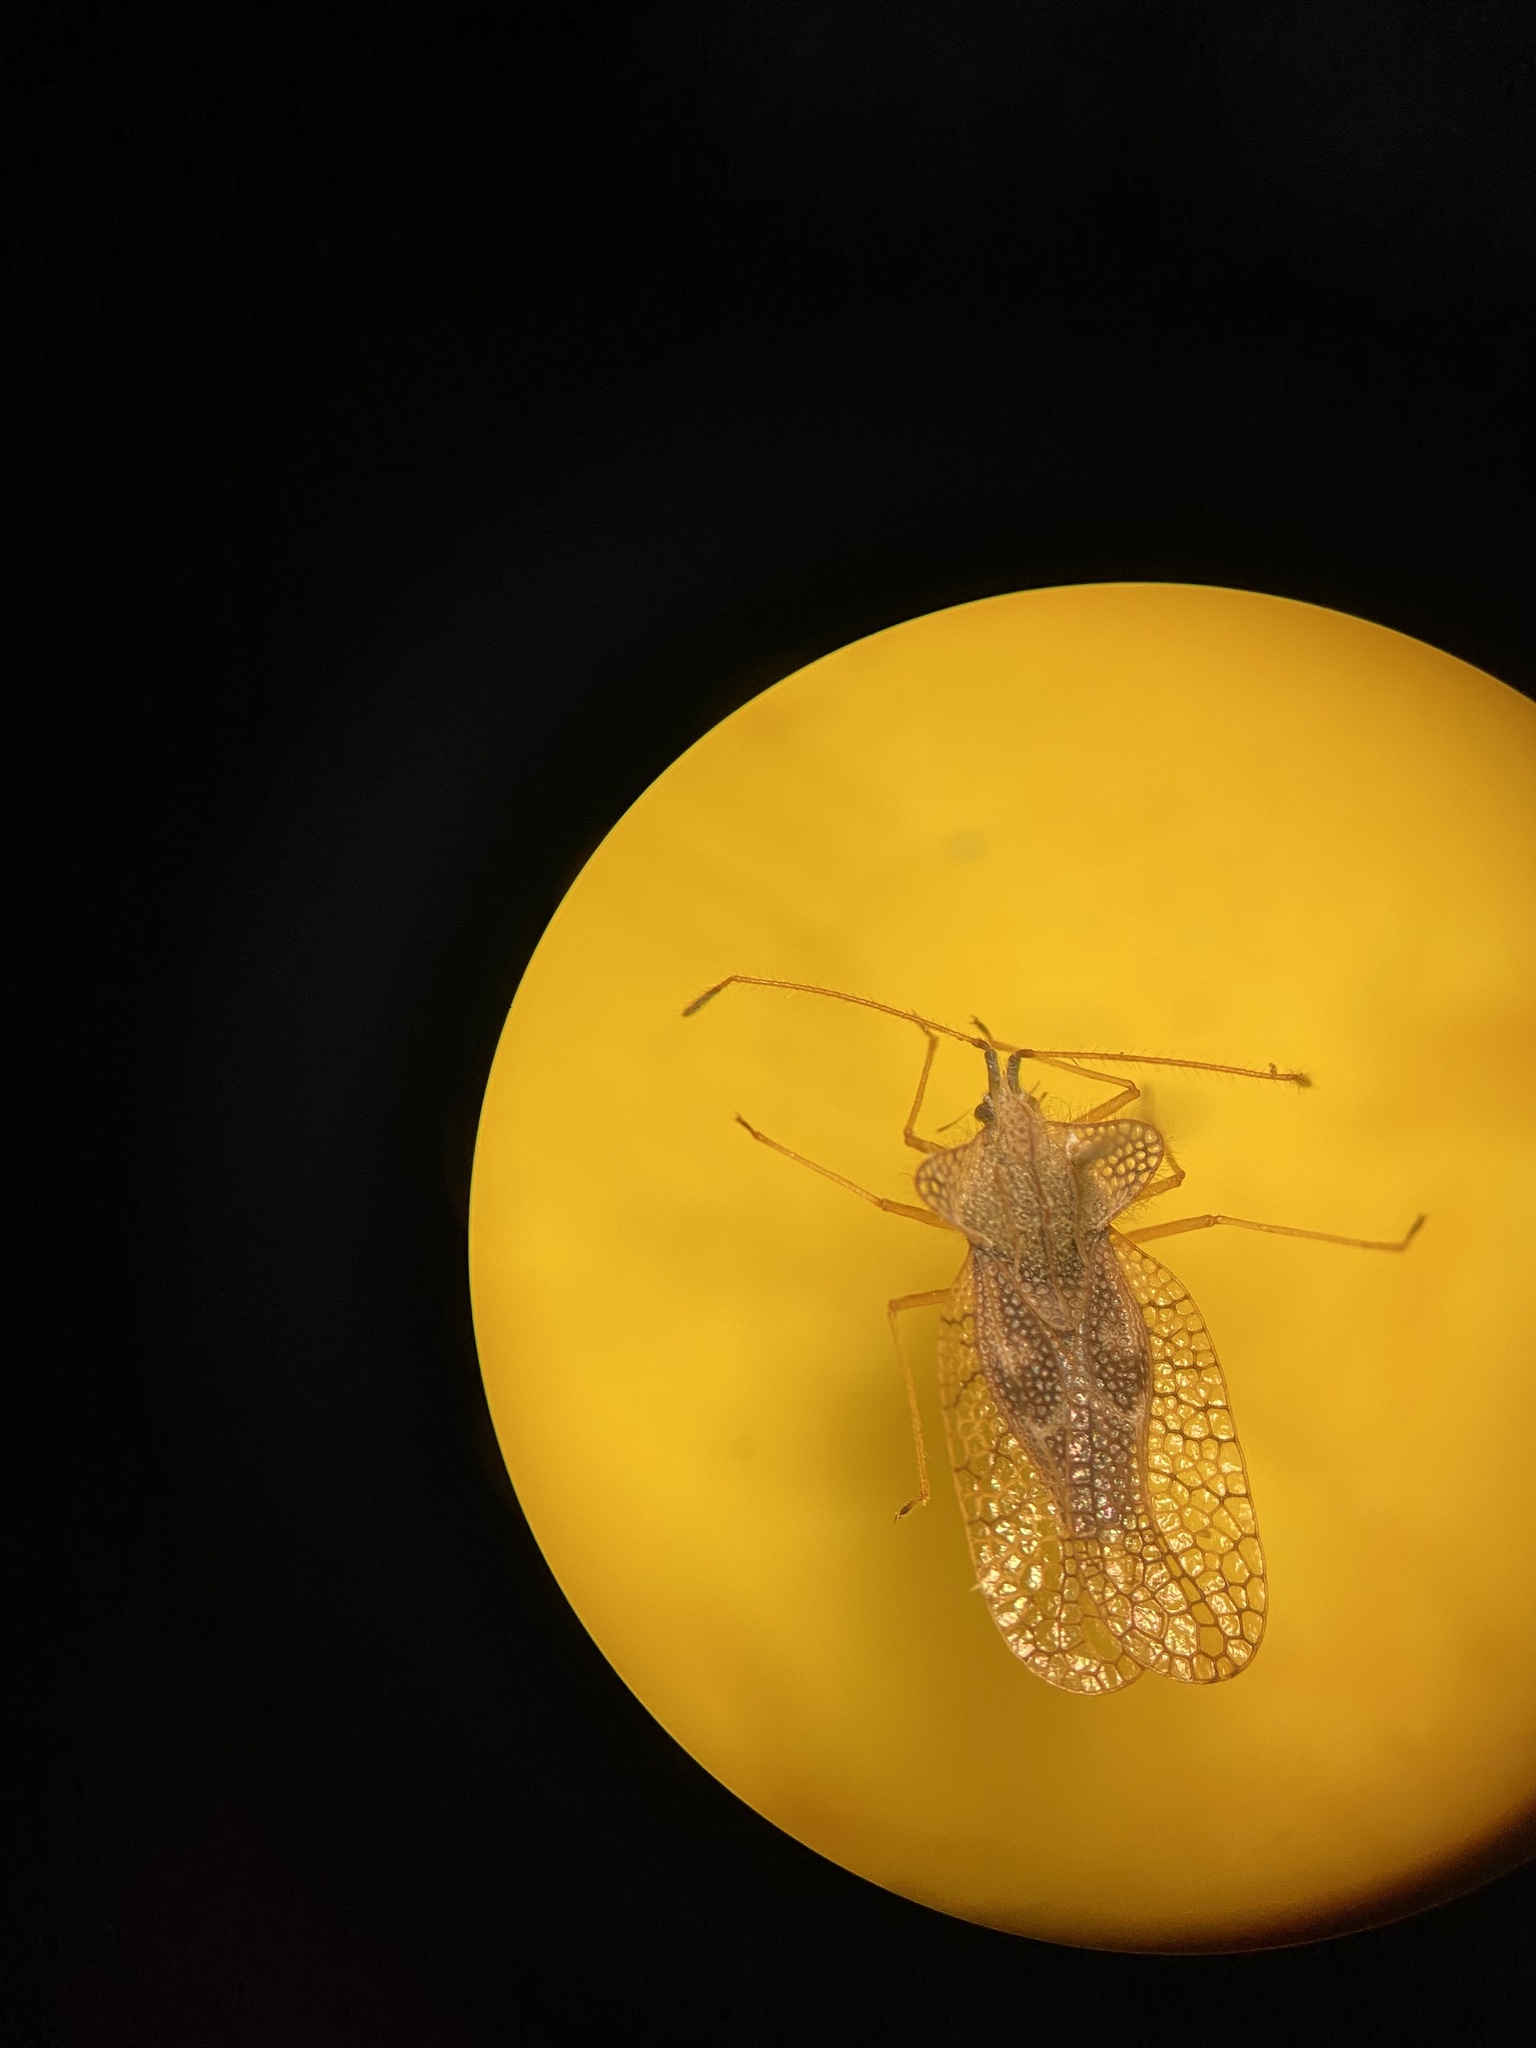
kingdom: Animalia
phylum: Arthropoda
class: Insecta
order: Hemiptera
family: Tingidae
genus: Gargaphia
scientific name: Gargaphia solani
